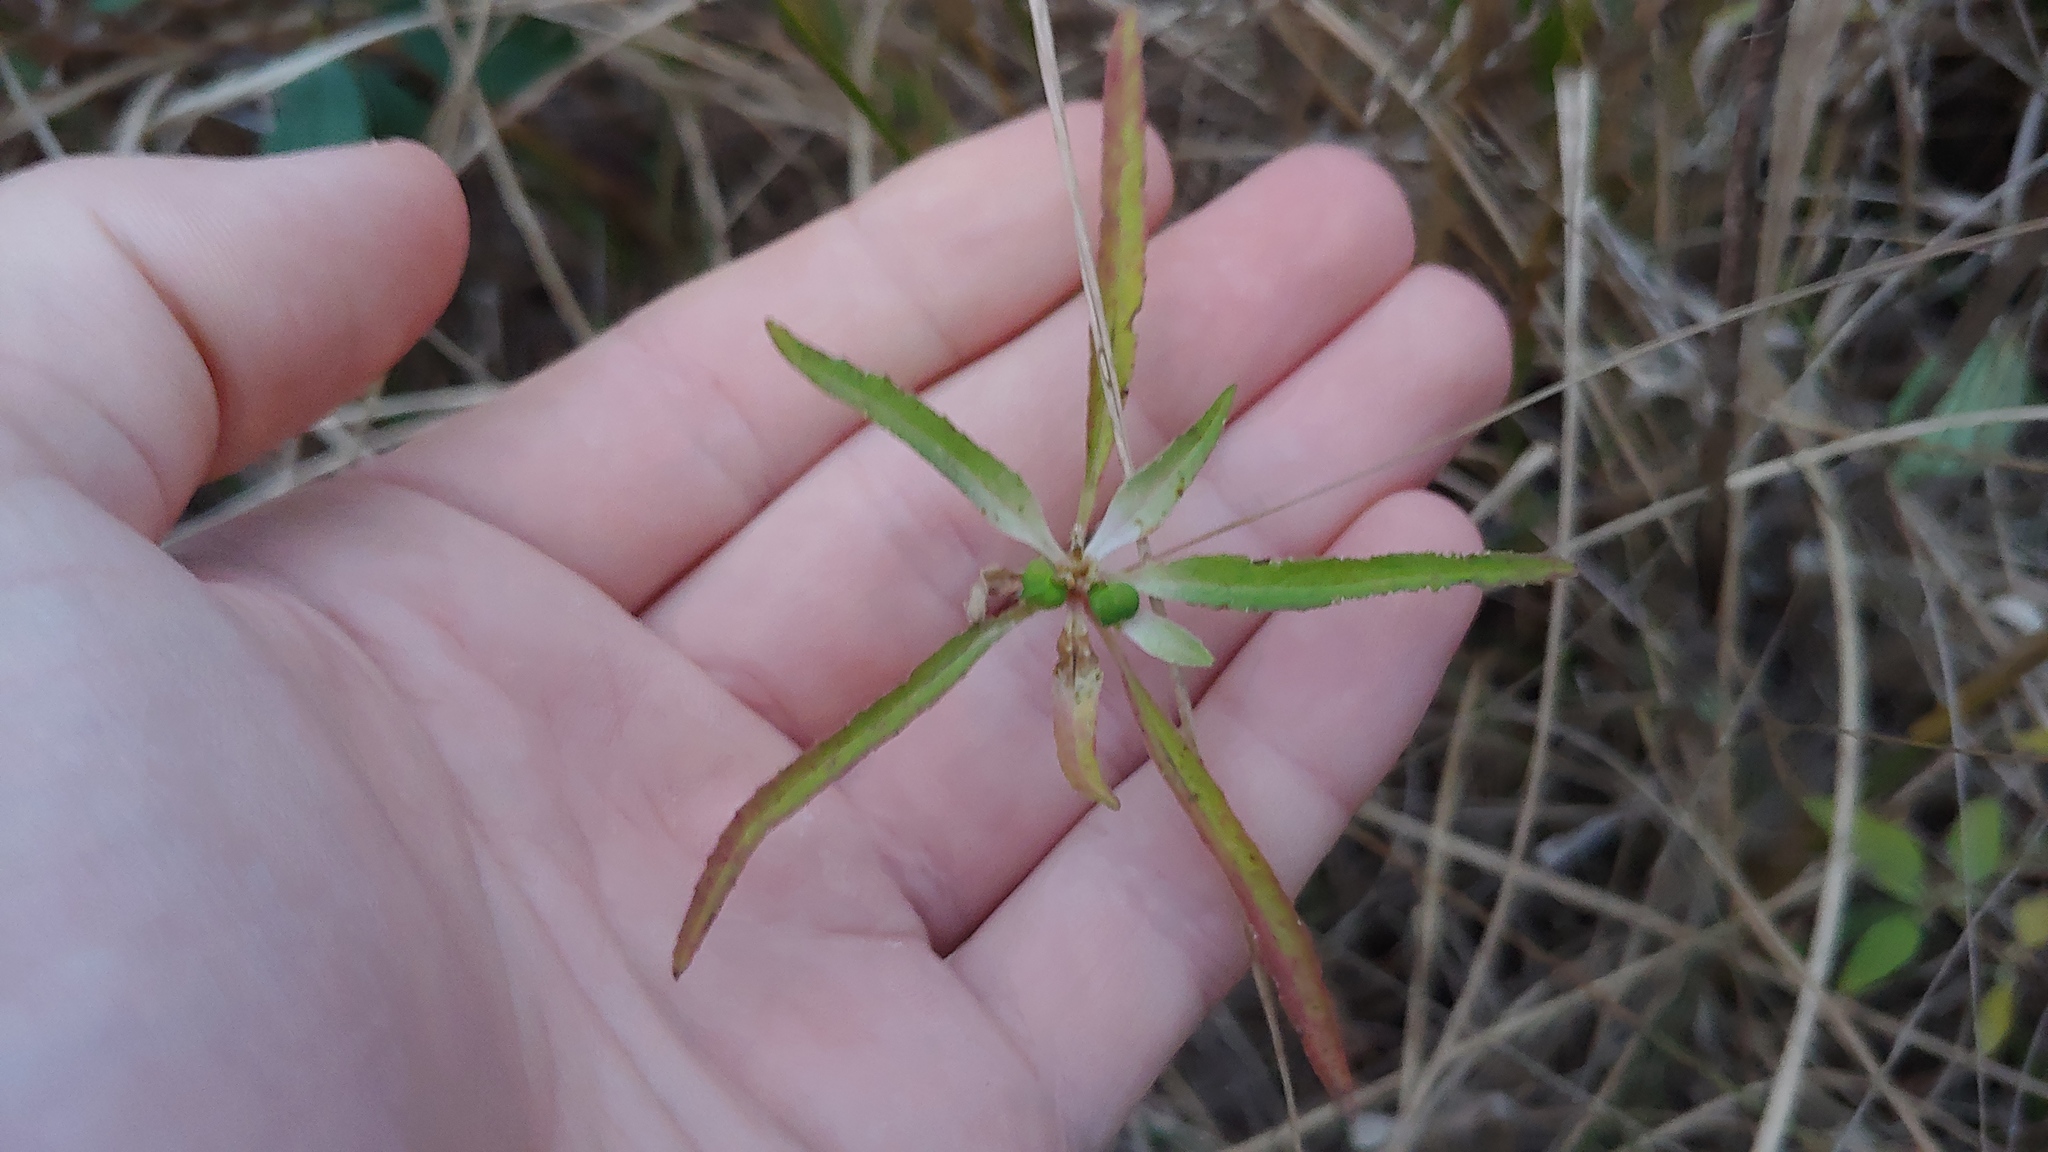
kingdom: Plantae
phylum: Tracheophyta
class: Magnoliopsida
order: Malpighiales
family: Euphorbiaceae
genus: Euphorbia
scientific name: Euphorbia davidii
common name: David's spurge
